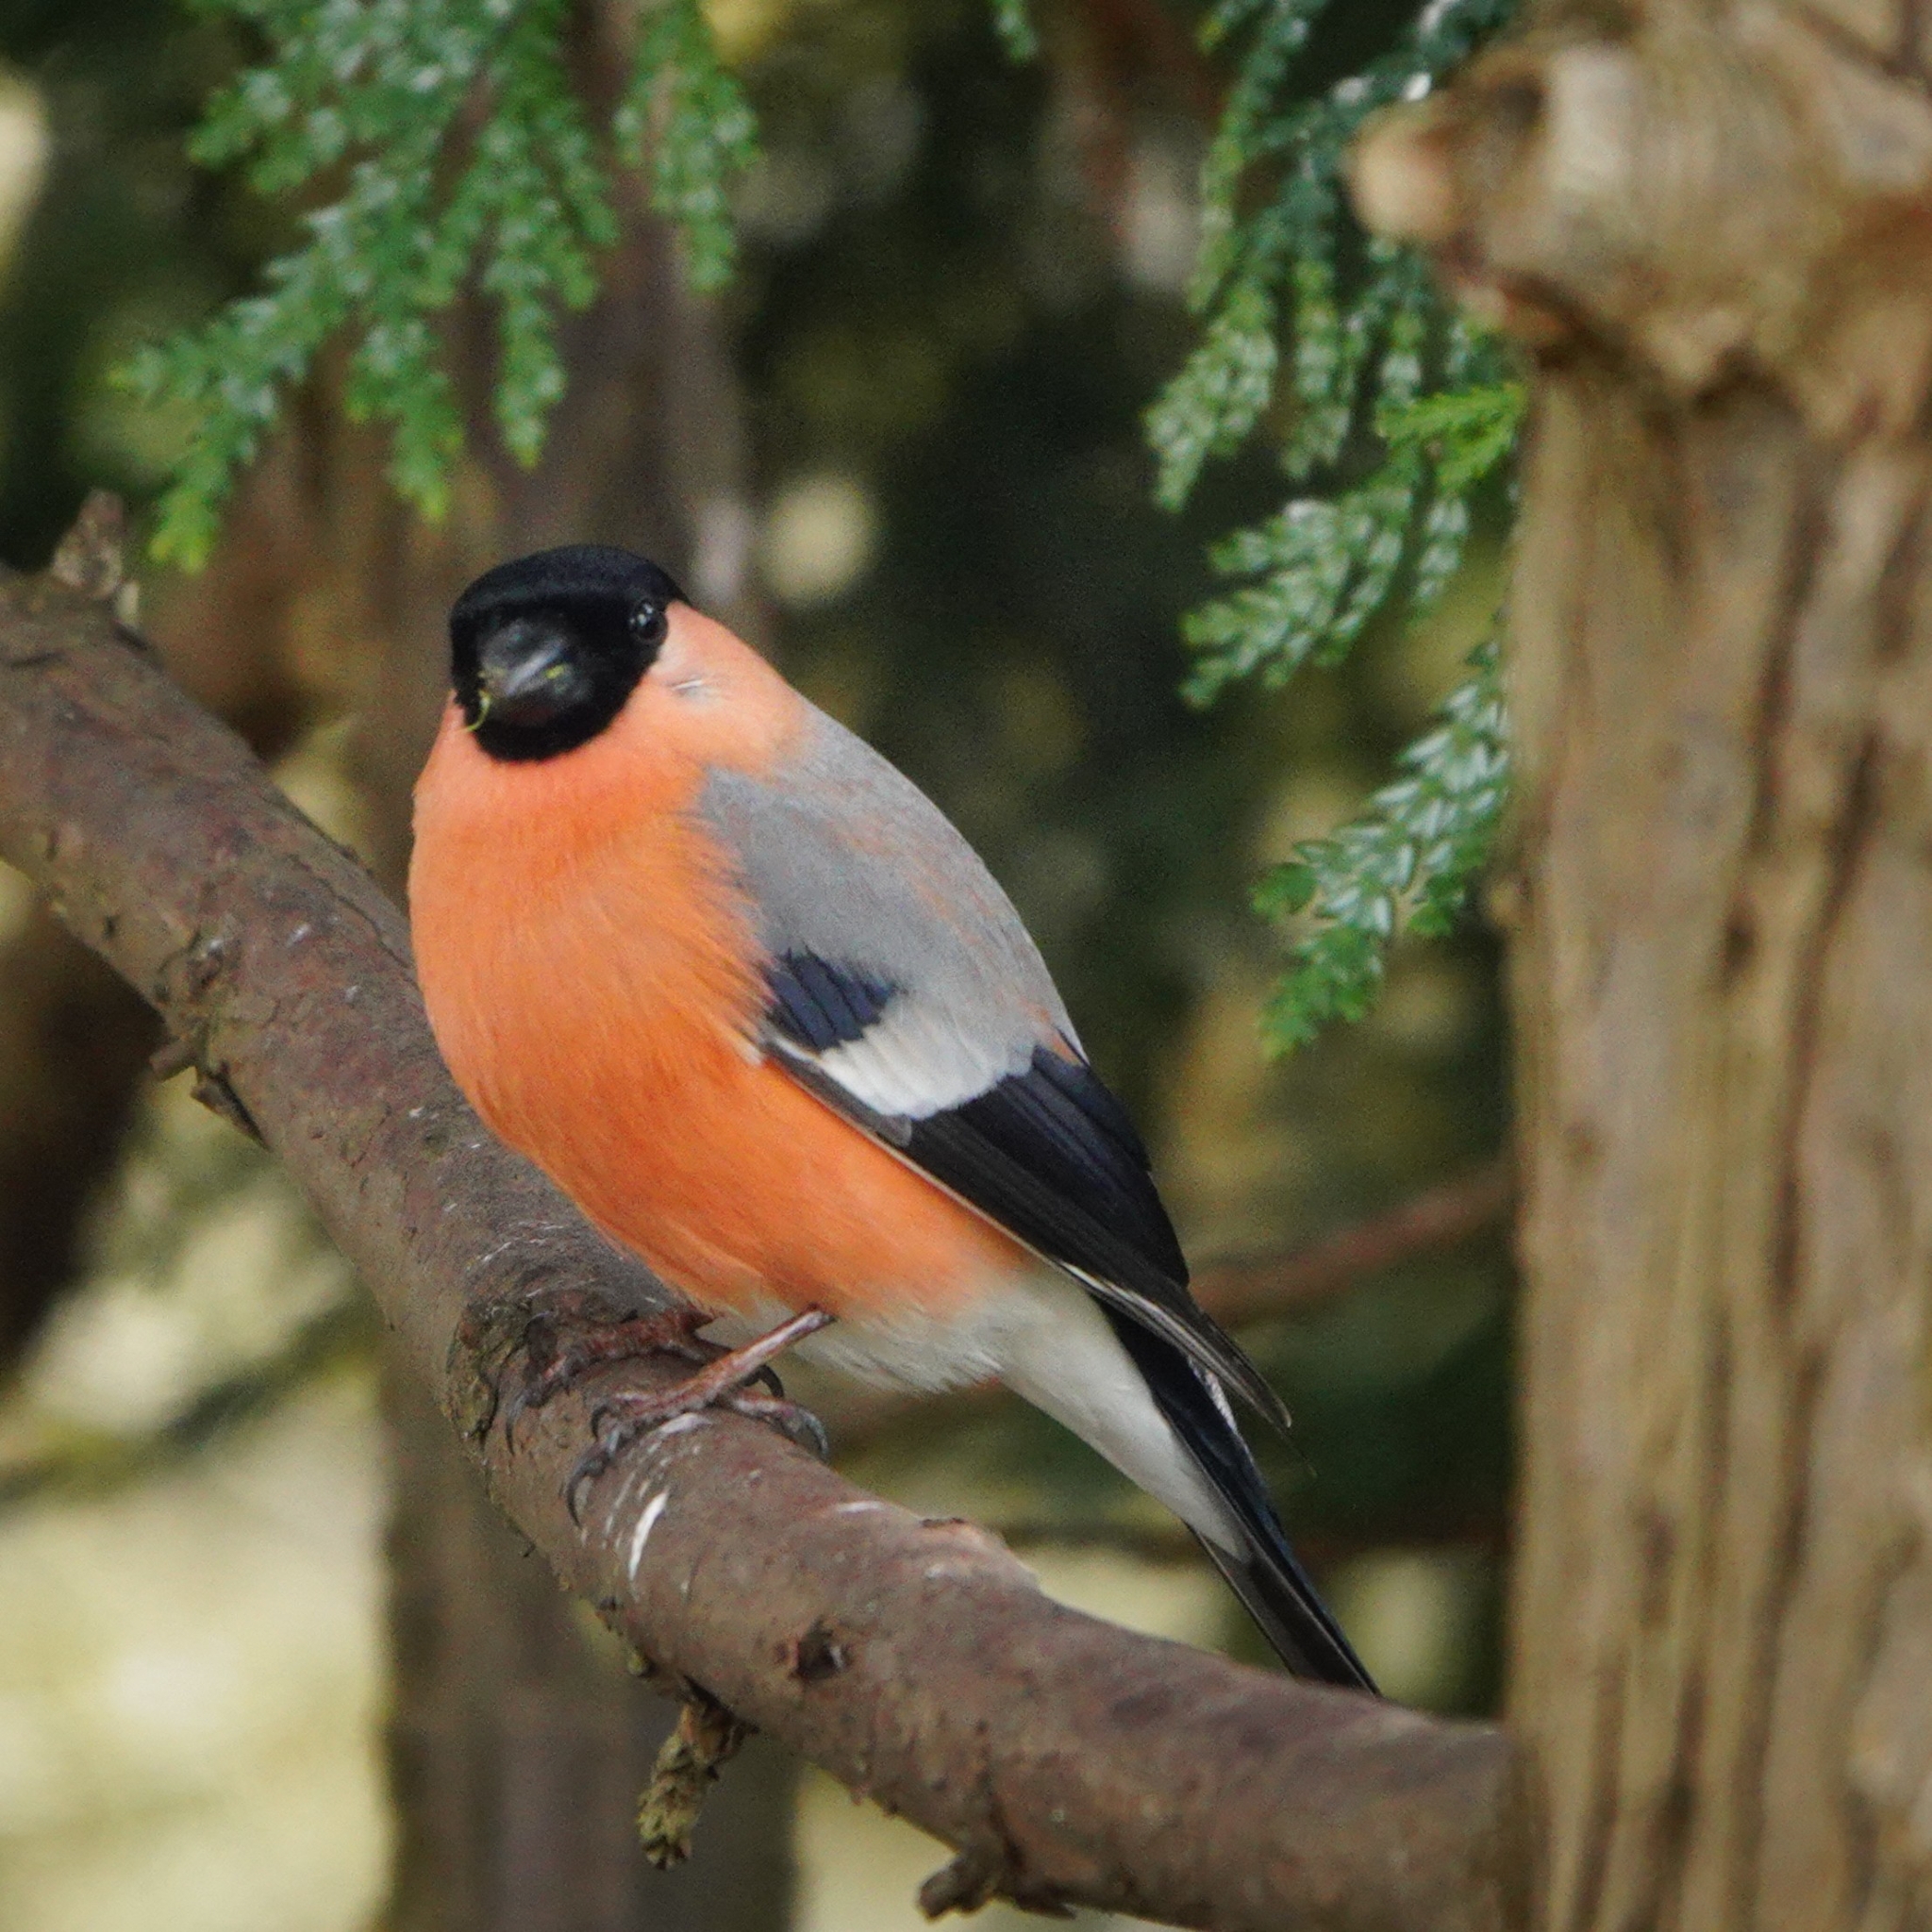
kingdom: Animalia
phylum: Chordata
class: Aves
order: Passeriformes
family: Fringillidae
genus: Pyrrhula
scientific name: Pyrrhula pyrrhula
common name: Eurasian bullfinch
